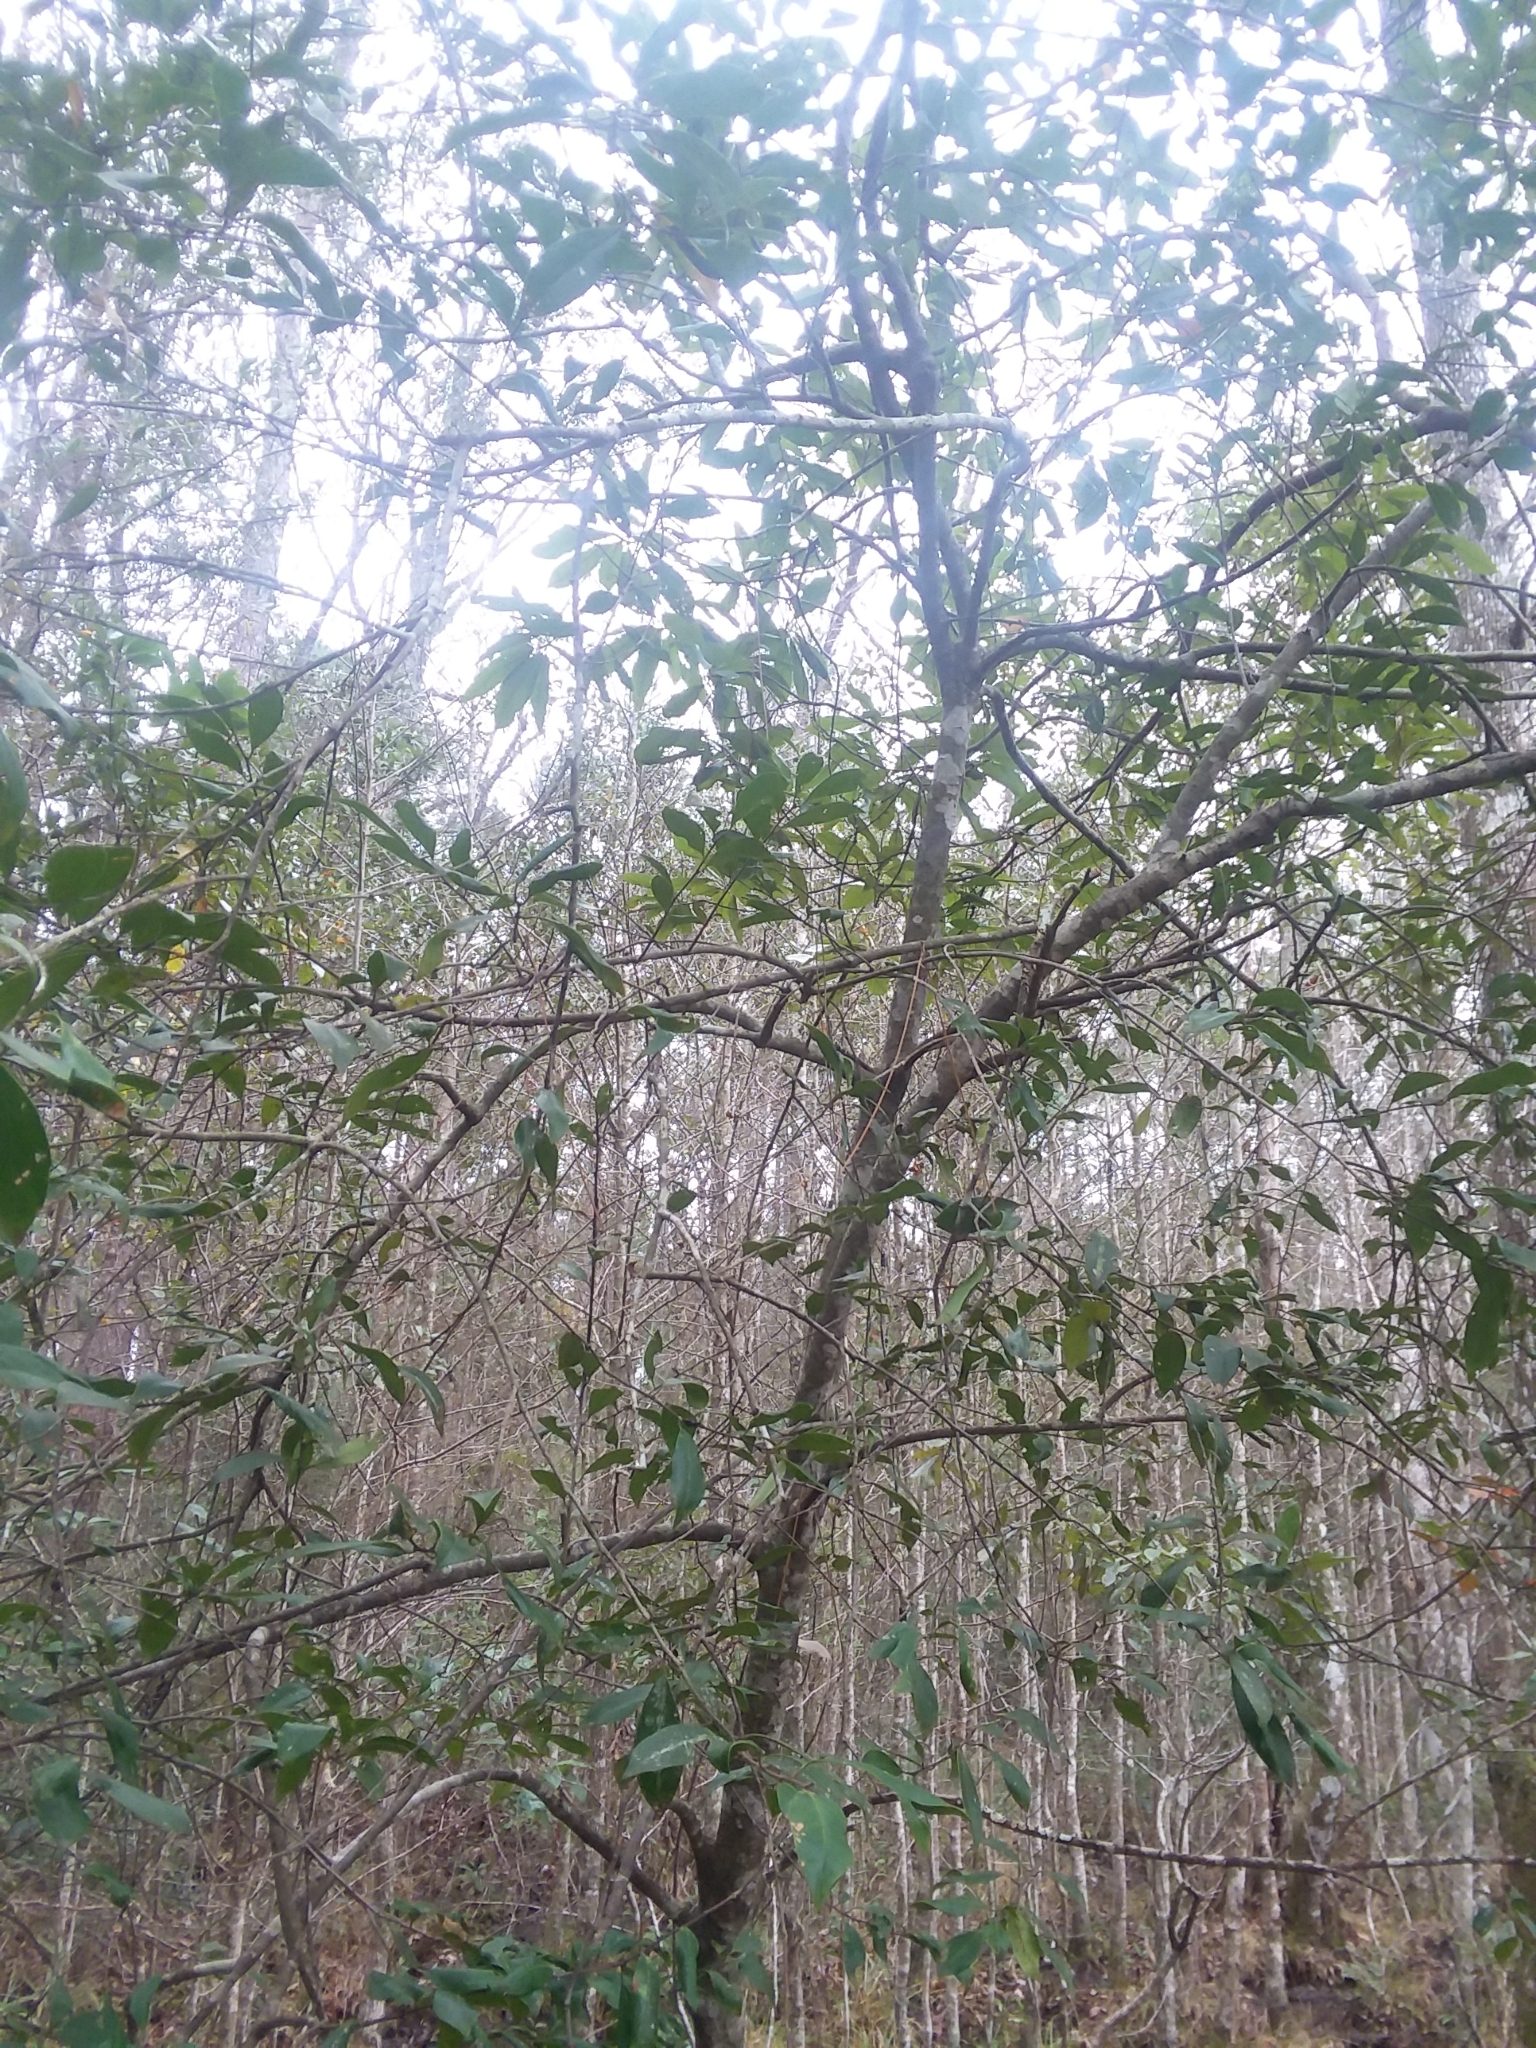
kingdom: Plantae
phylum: Tracheophyta
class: Magnoliopsida
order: Aquifoliales
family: Aquifoliaceae
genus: Ilex
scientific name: Ilex coriacea
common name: Sweet gallberry
